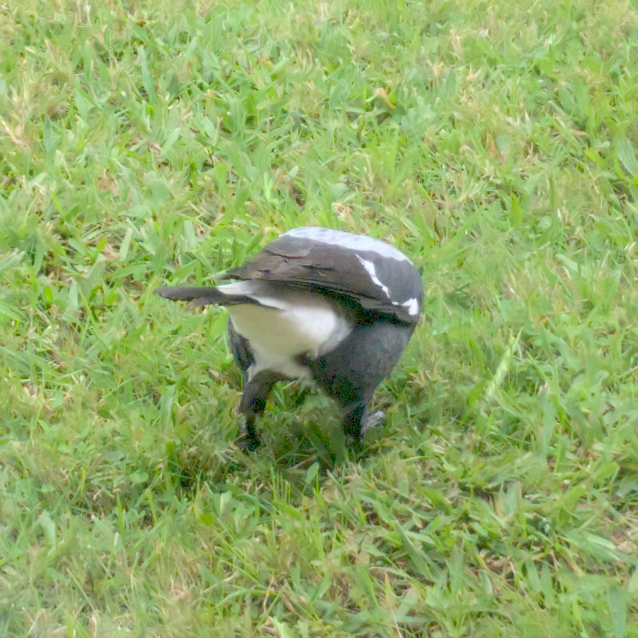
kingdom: Animalia
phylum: Chordata
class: Aves
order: Passeriformes
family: Cracticidae
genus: Gymnorhina
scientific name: Gymnorhina tibicen
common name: Australian magpie
